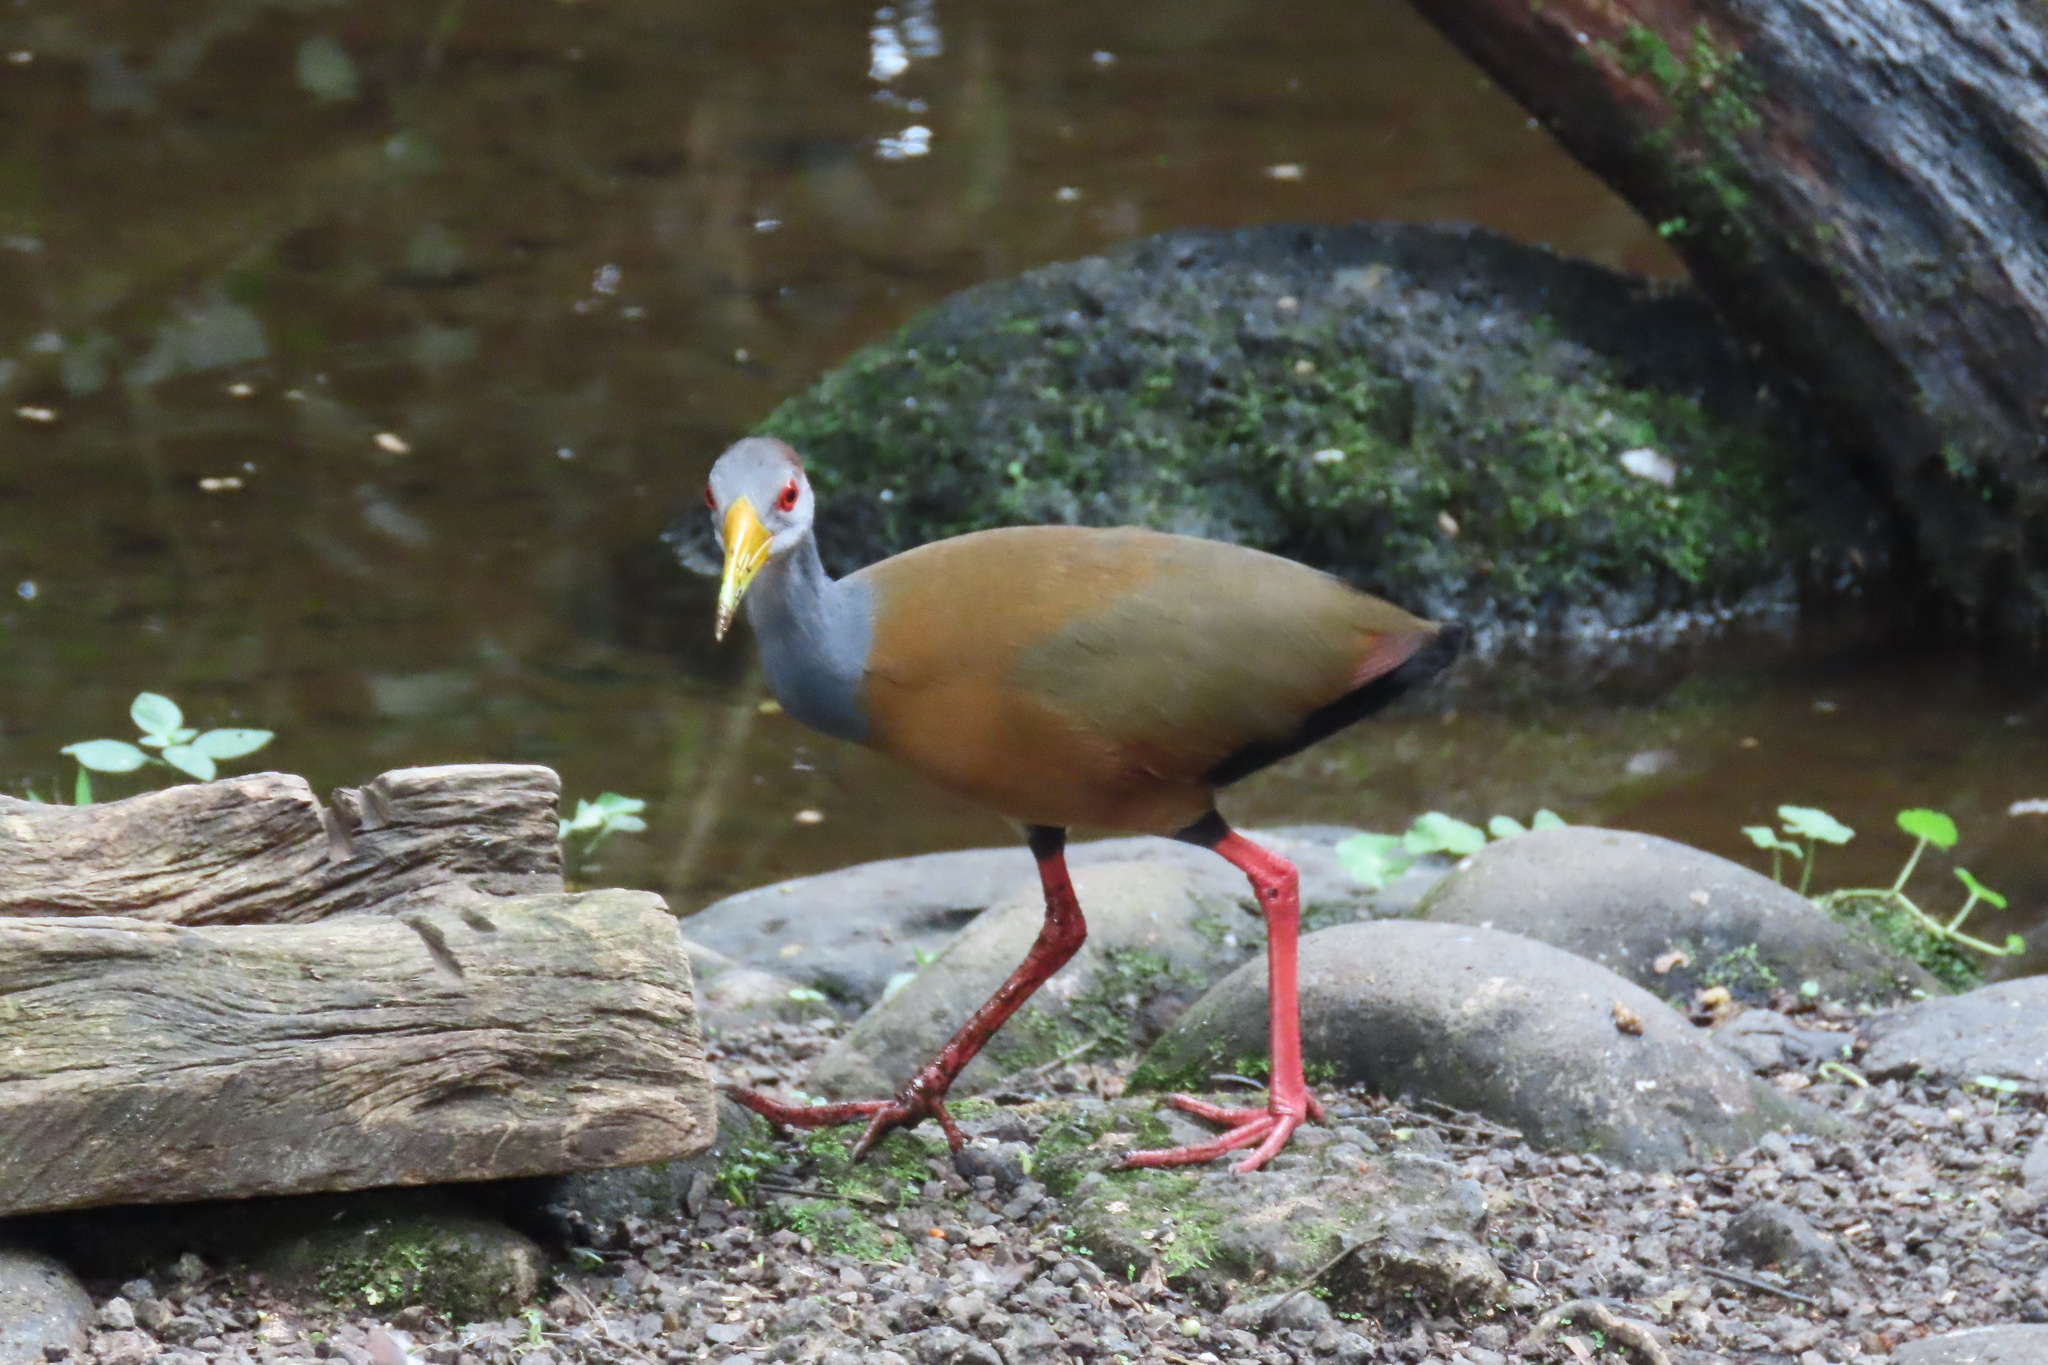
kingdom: Animalia
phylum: Chordata
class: Aves
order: Gruiformes
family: Rallidae
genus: Aramides
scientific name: Aramides albiventris
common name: Russet-naped wood-rail
